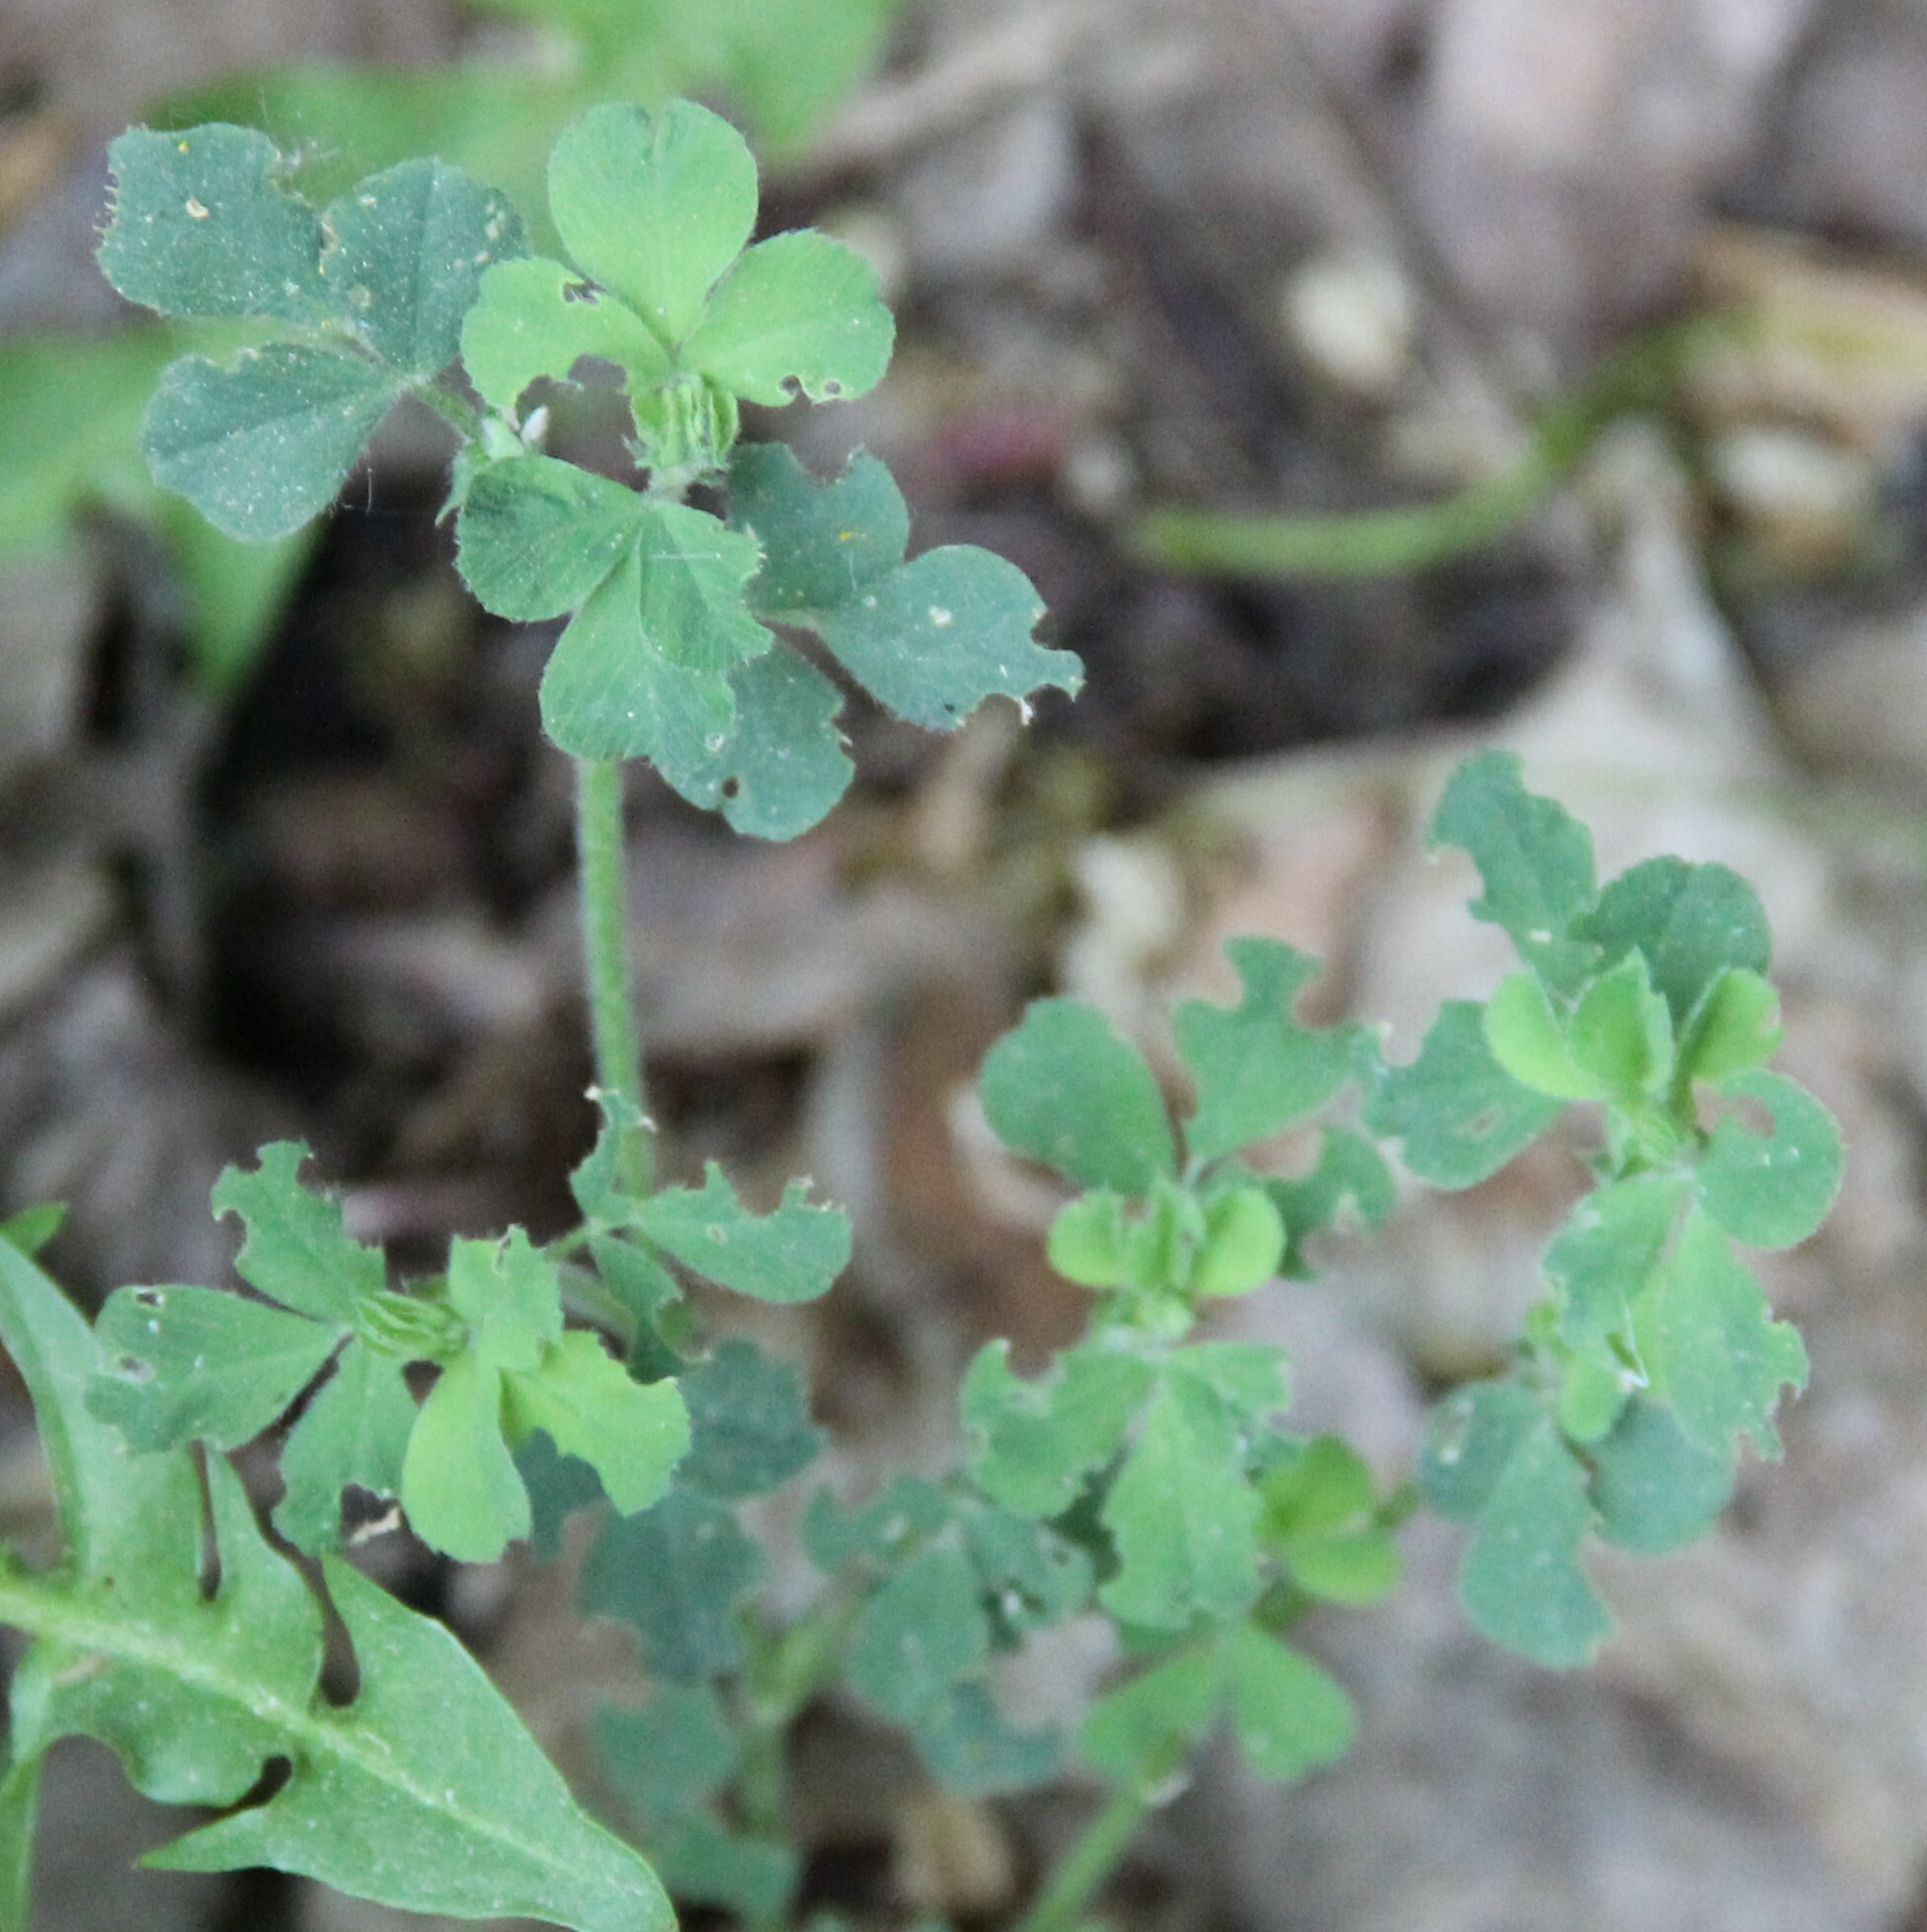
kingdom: Plantae
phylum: Tracheophyta
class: Magnoliopsida
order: Fabales
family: Fabaceae
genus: Medicago
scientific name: Medicago lupulina
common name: Black medick
